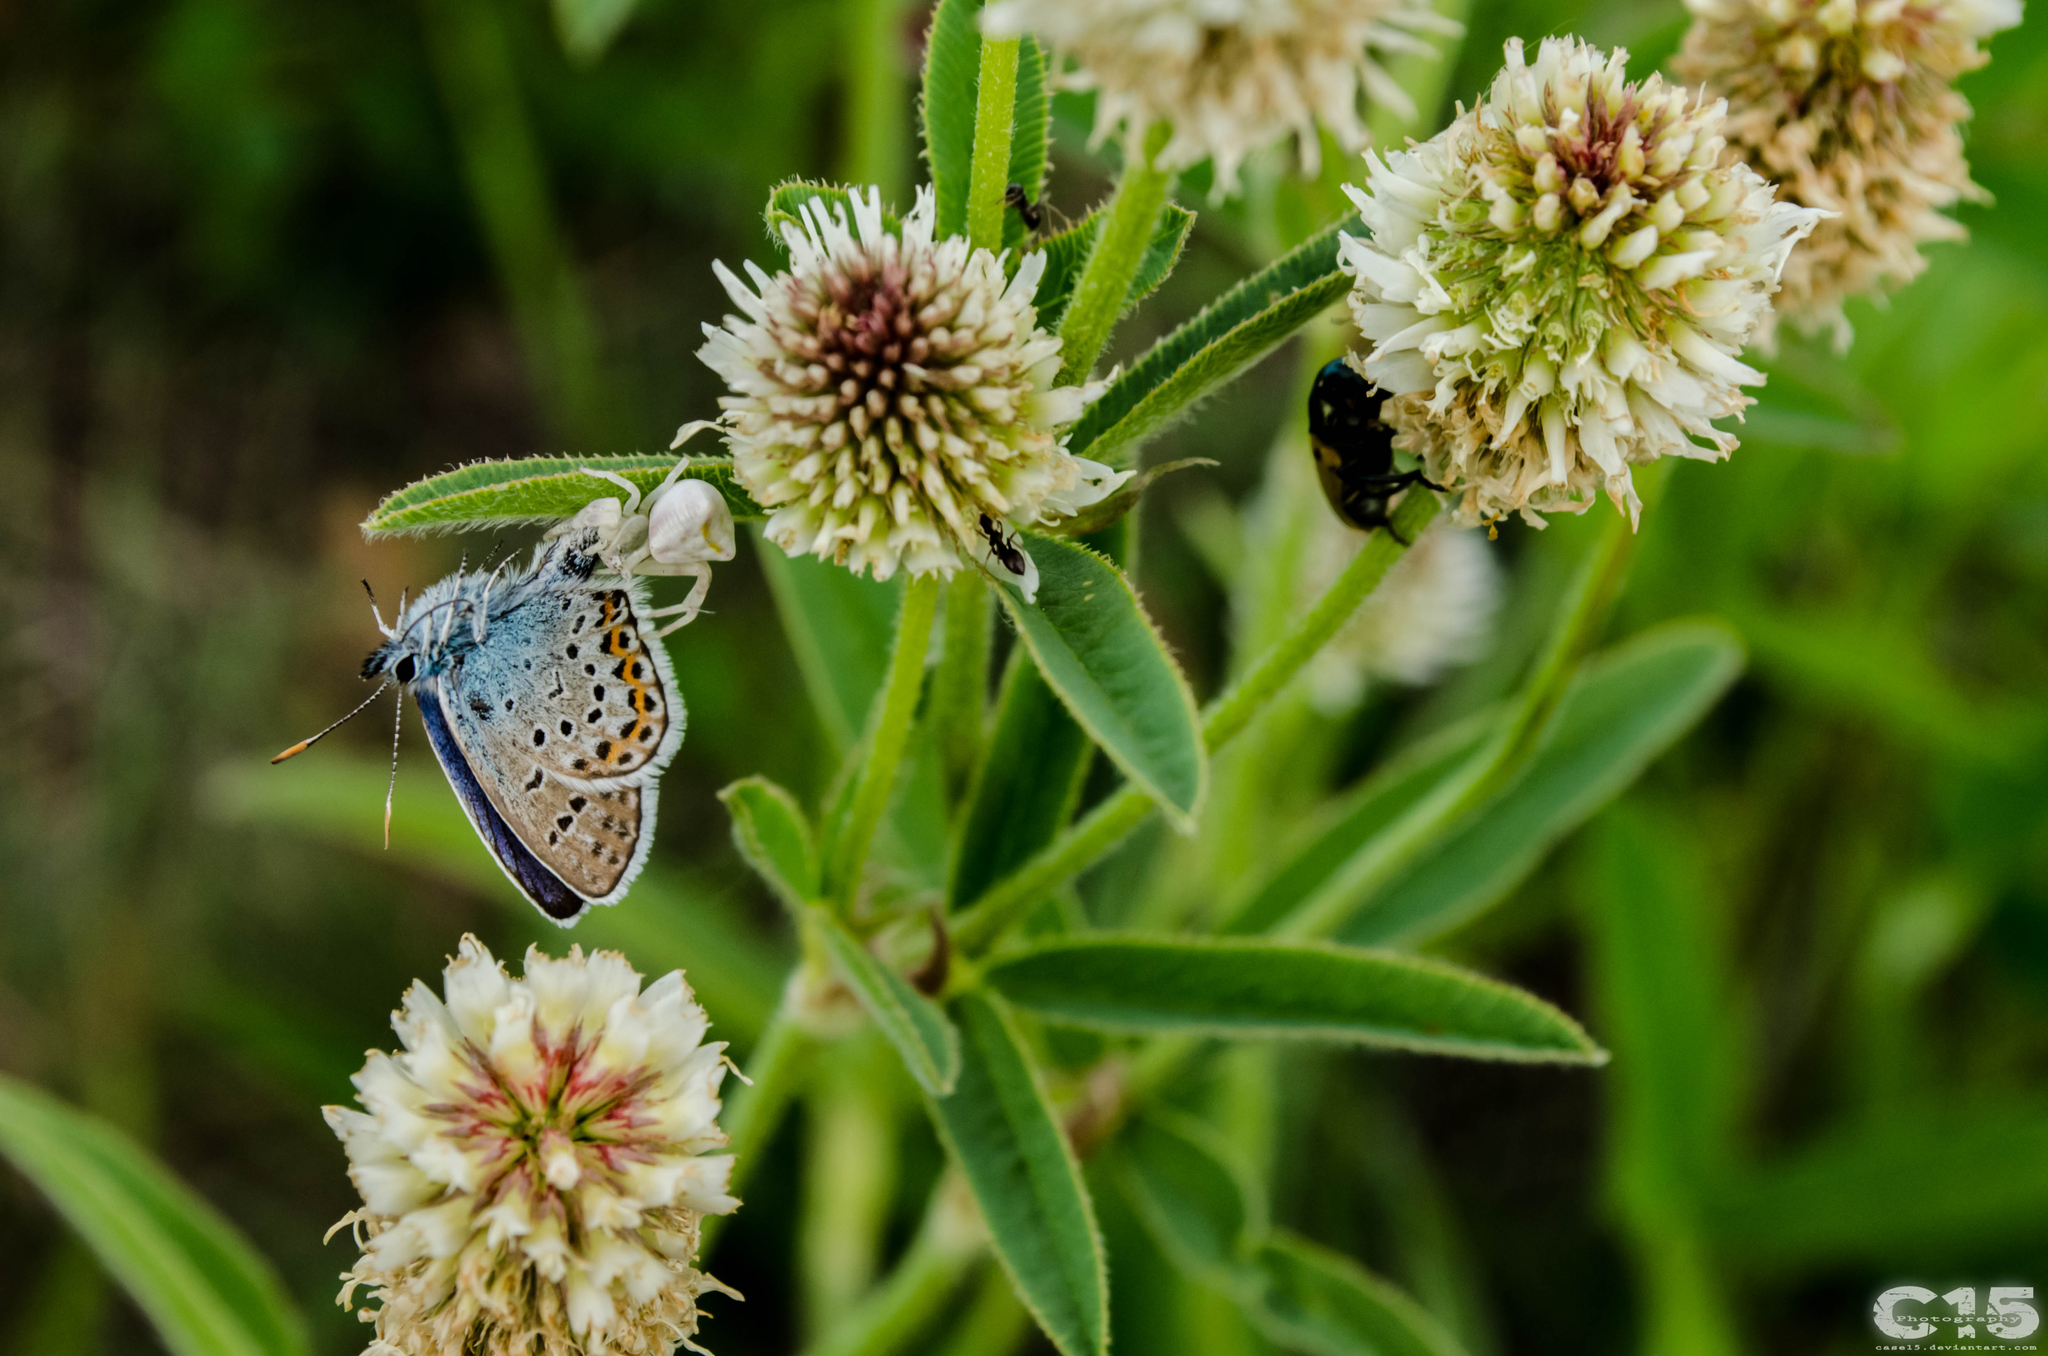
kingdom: Animalia
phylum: Arthropoda
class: Insecta
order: Lepidoptera
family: Lycaenidae
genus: Plebejus
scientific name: Plebejus argus
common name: Silver-studded blue
